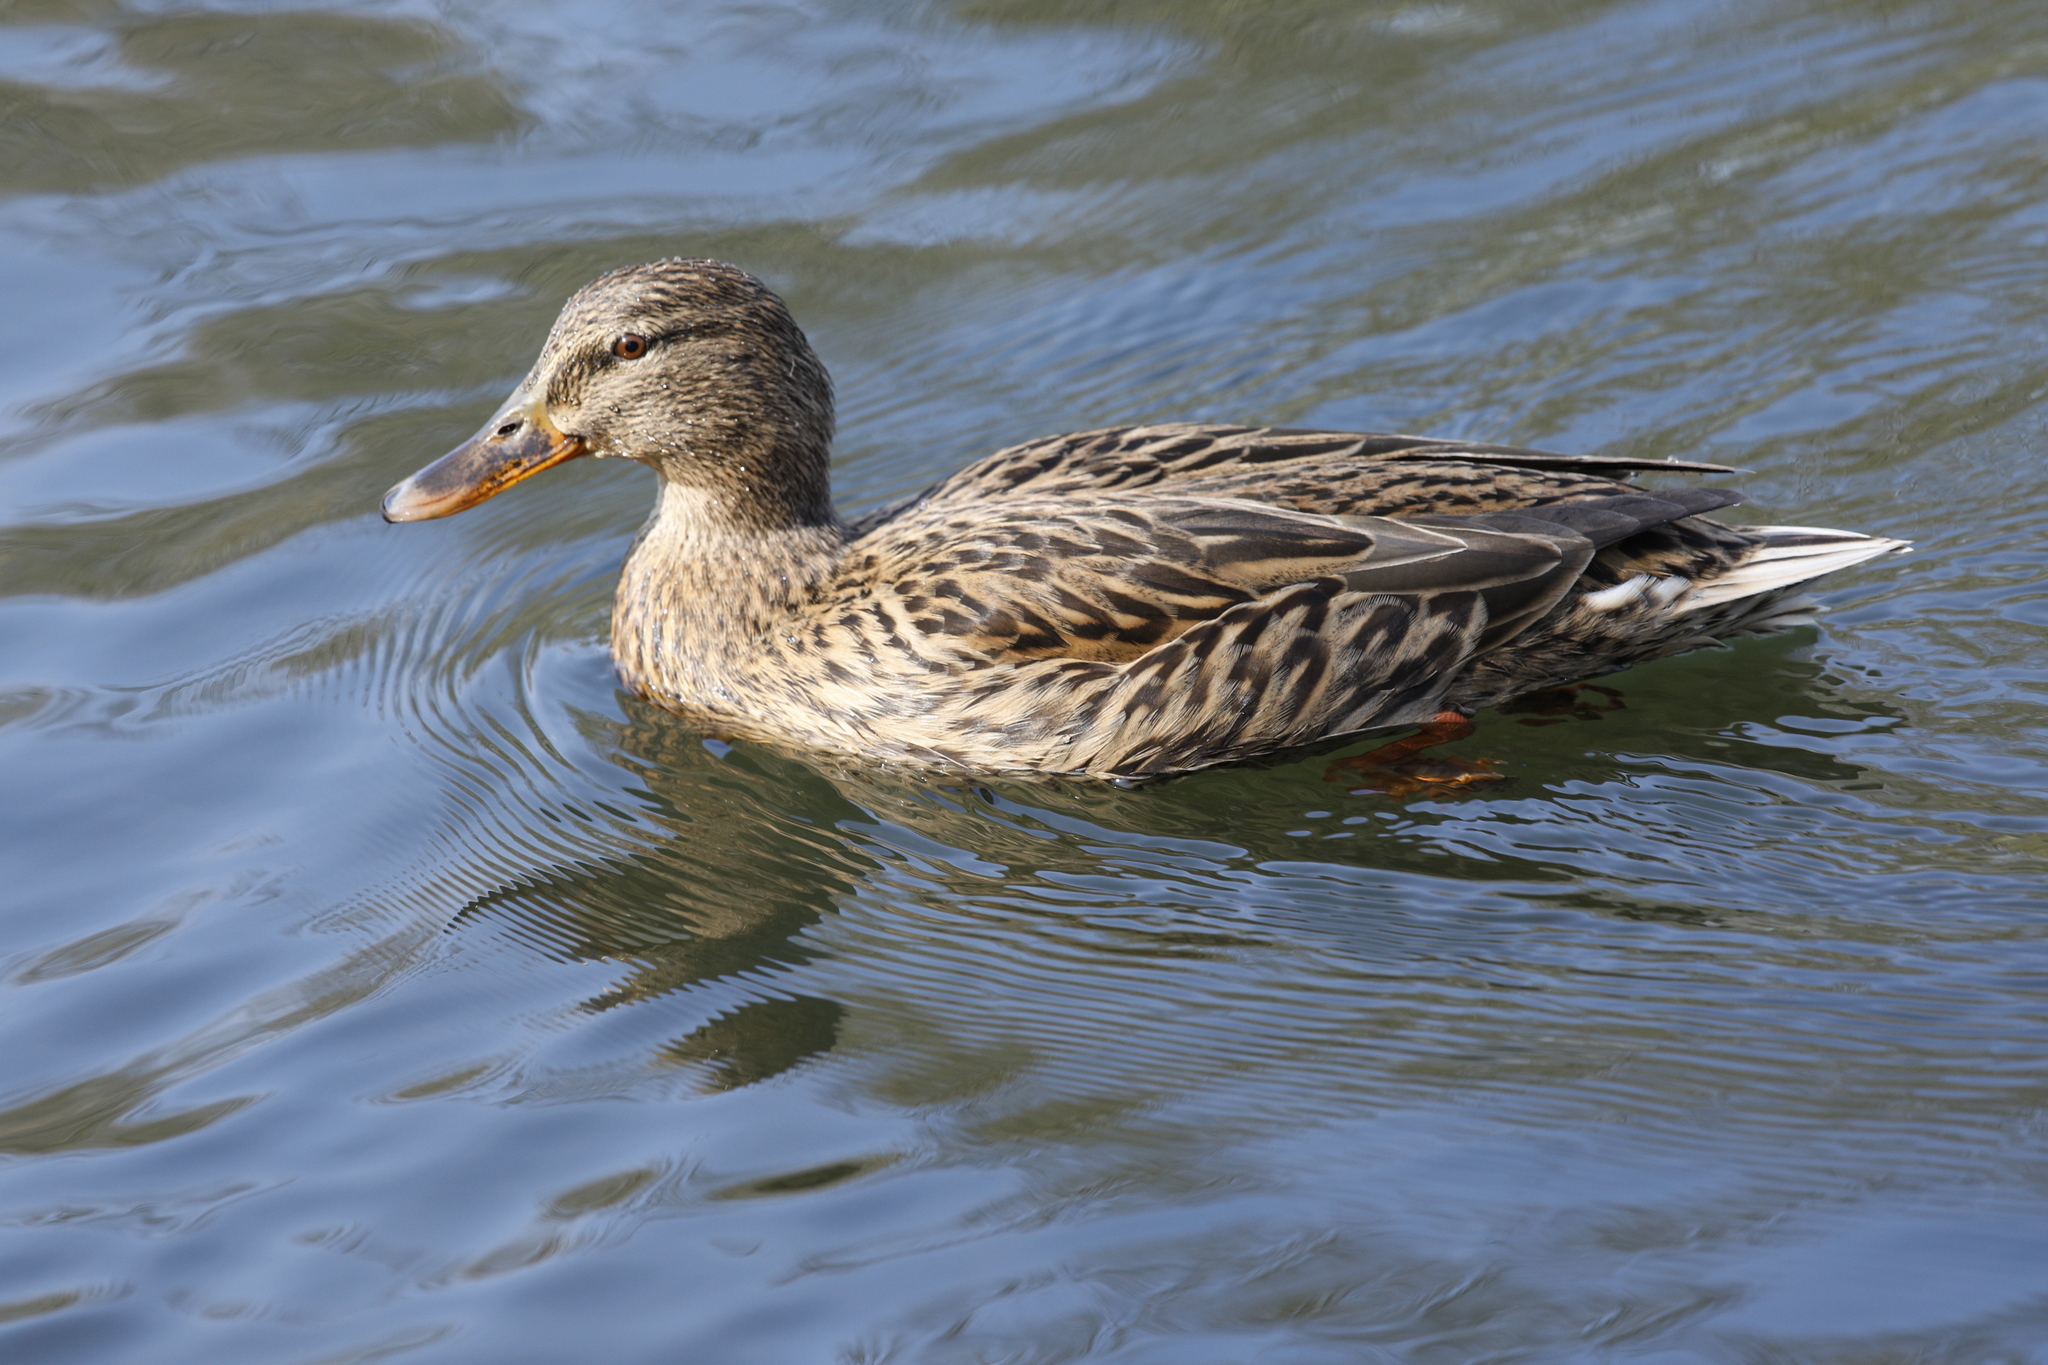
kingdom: Animalia
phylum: Chordata
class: Aves
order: Anseriformes
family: Anatidae
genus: Anas
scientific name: Anas platyrhynchos
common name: Mallard
